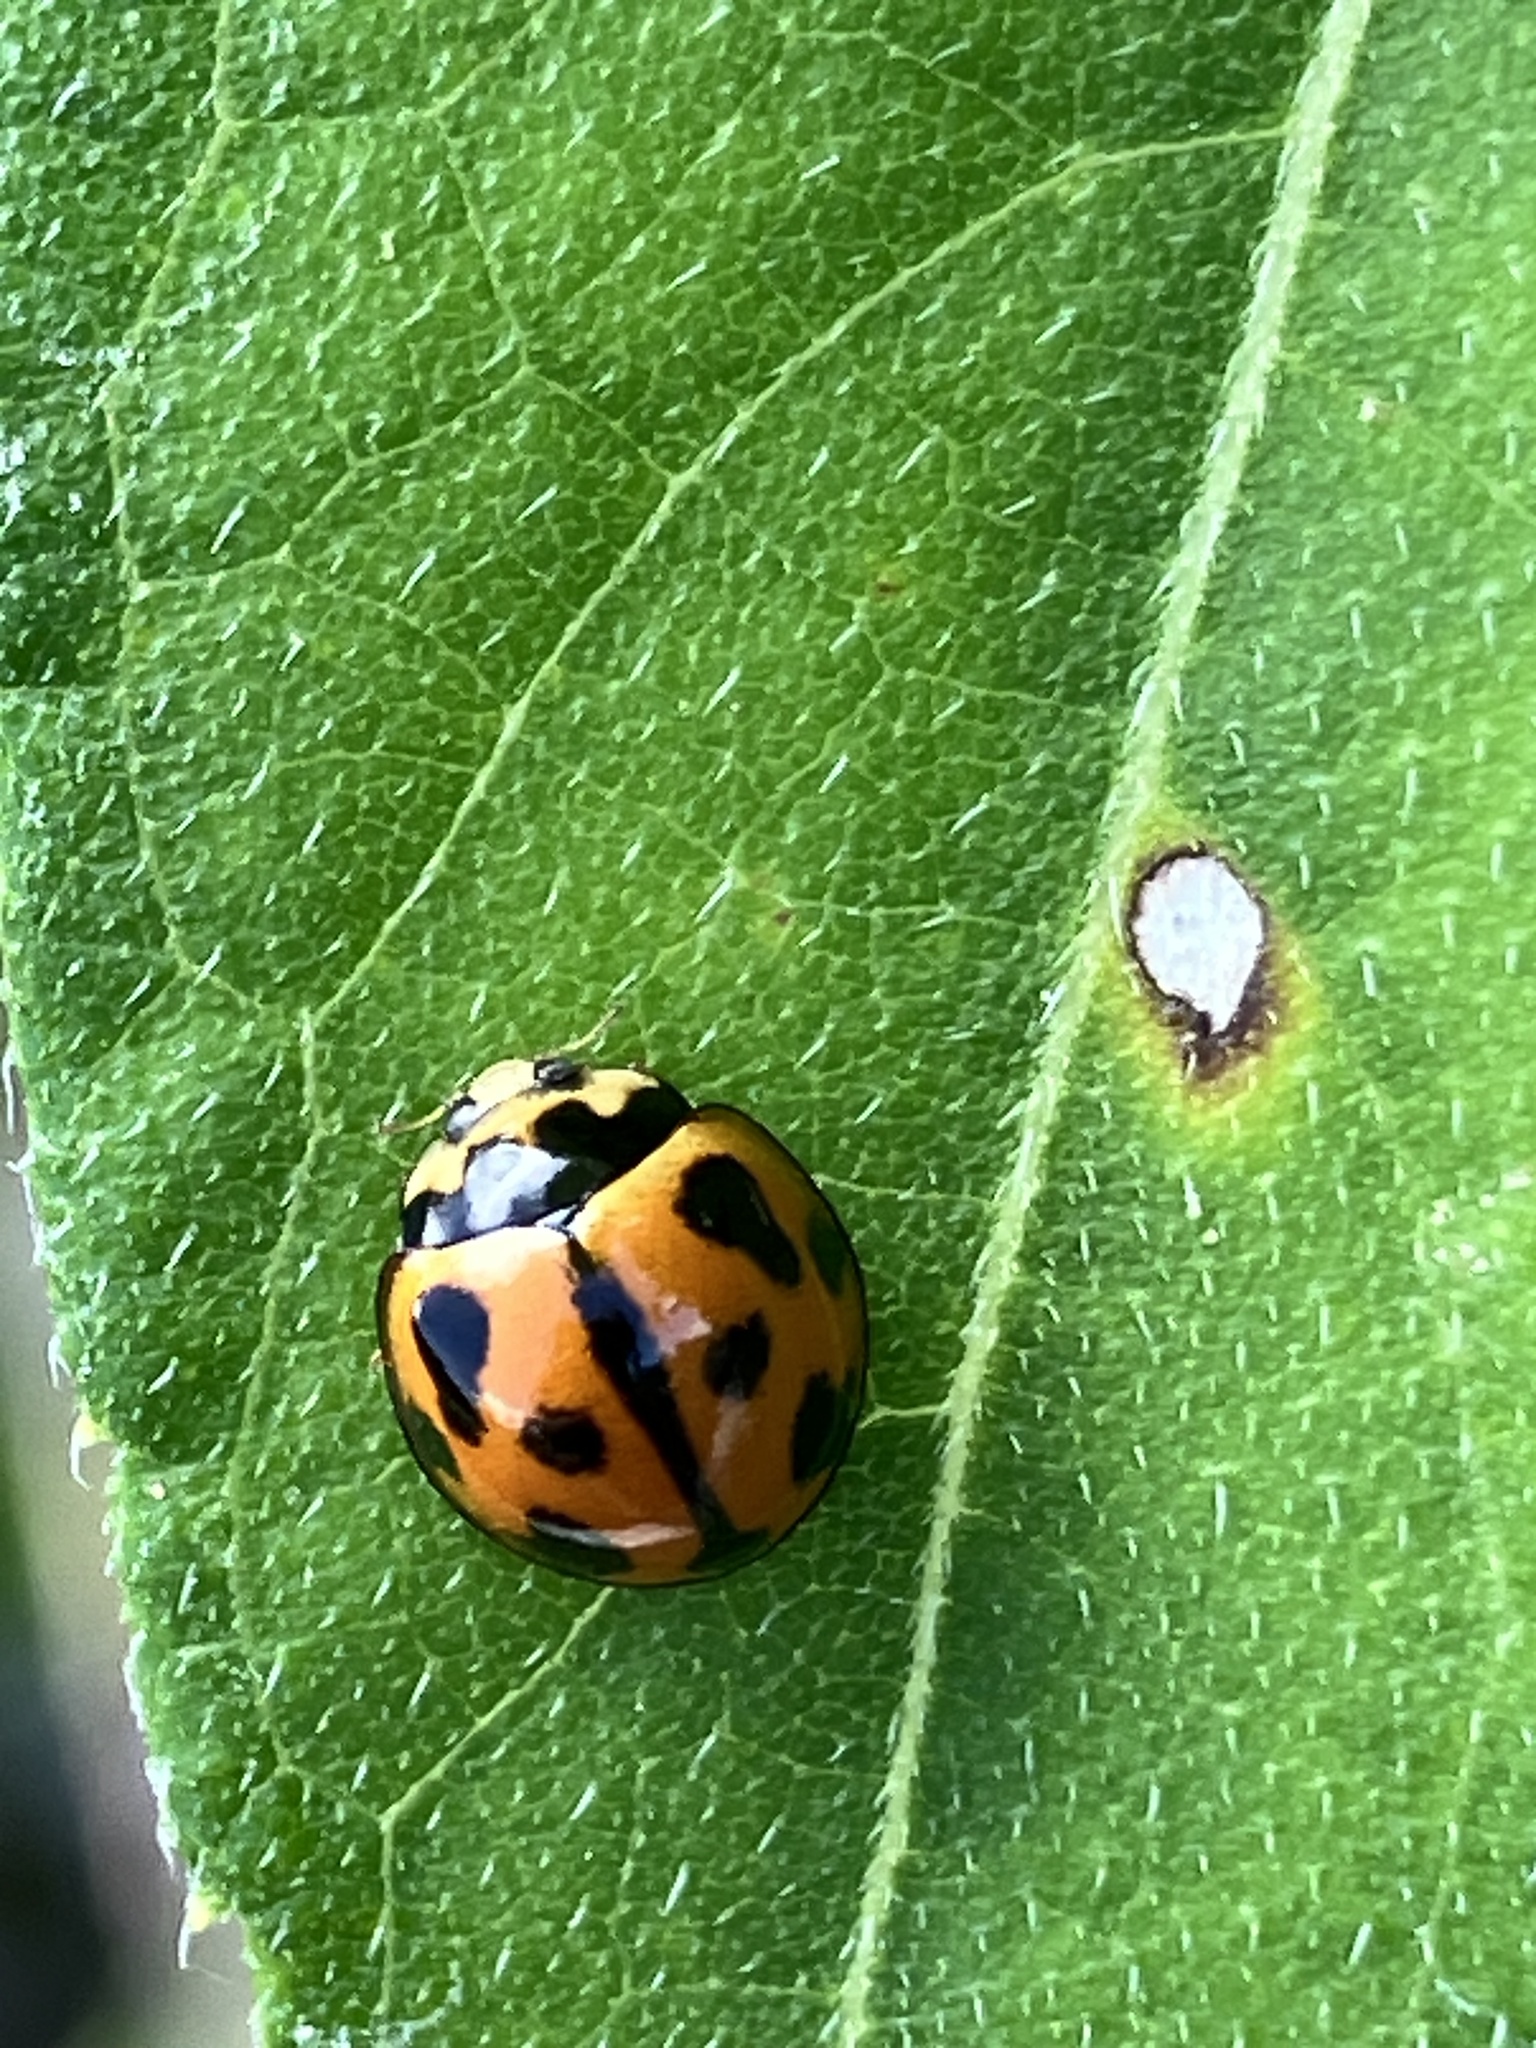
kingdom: Animalia
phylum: Arthropoda
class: Insecta
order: Coleoptera
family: Coccinellidae
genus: Coelophora
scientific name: Coelophora inaequalis
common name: Common australian lady beetle
